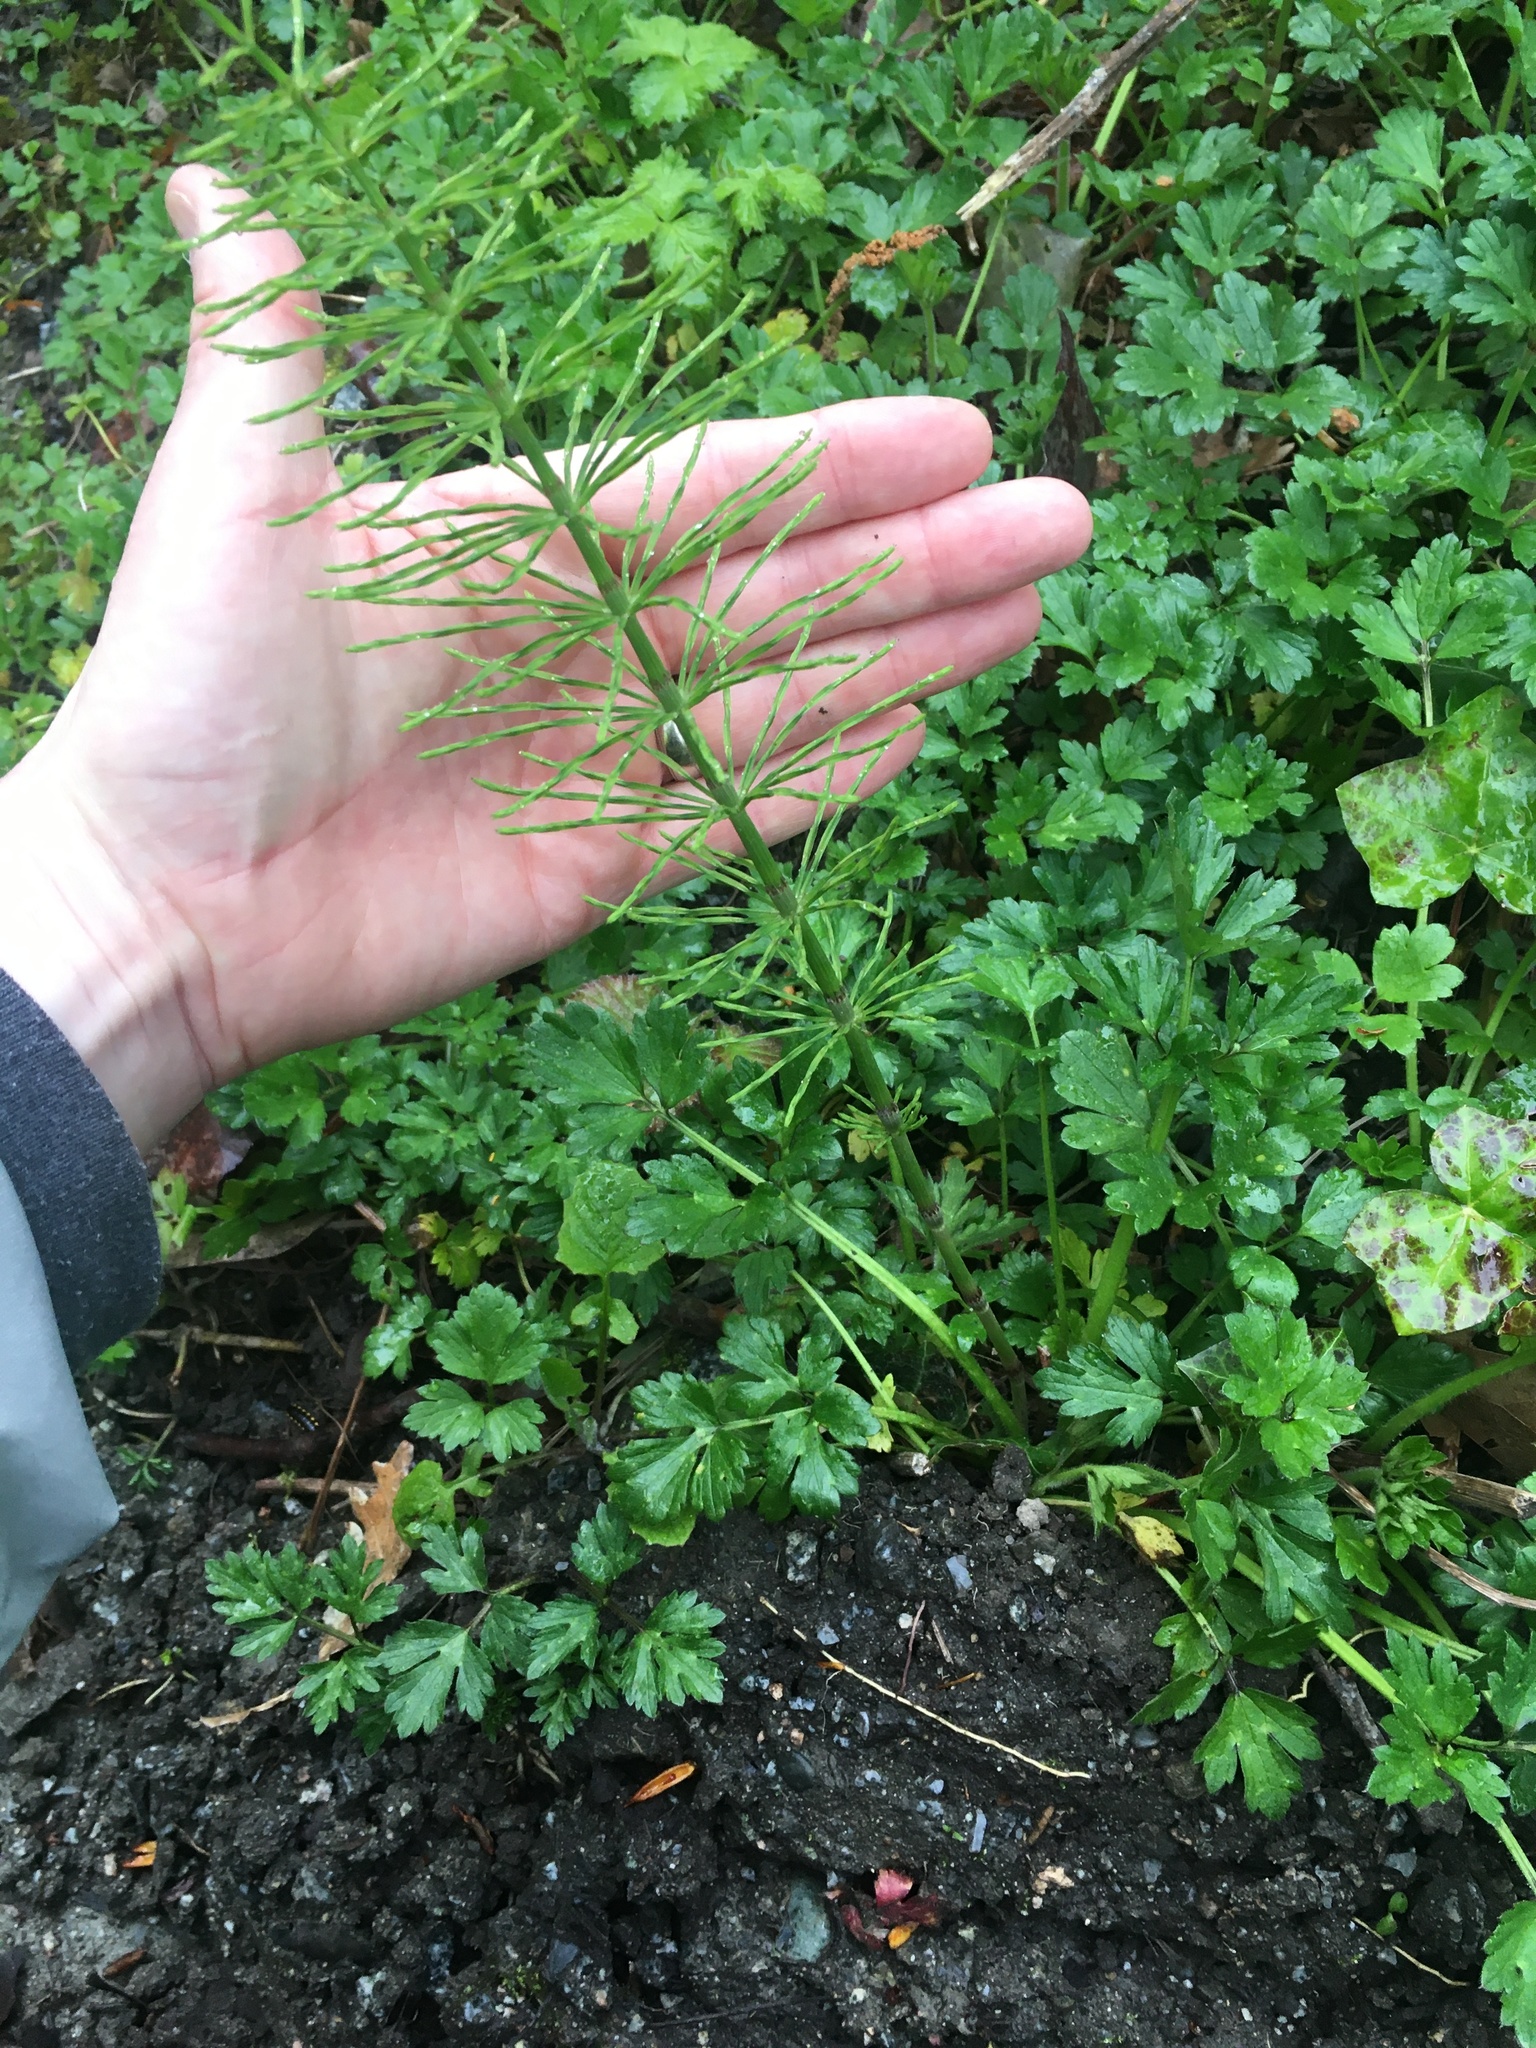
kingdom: Plantae
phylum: Tracheophyta
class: Polypodiopsida
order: Equisetales
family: Equisetaceae
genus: Equisetum
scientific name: Equisetum arvense
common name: Field horsetail
